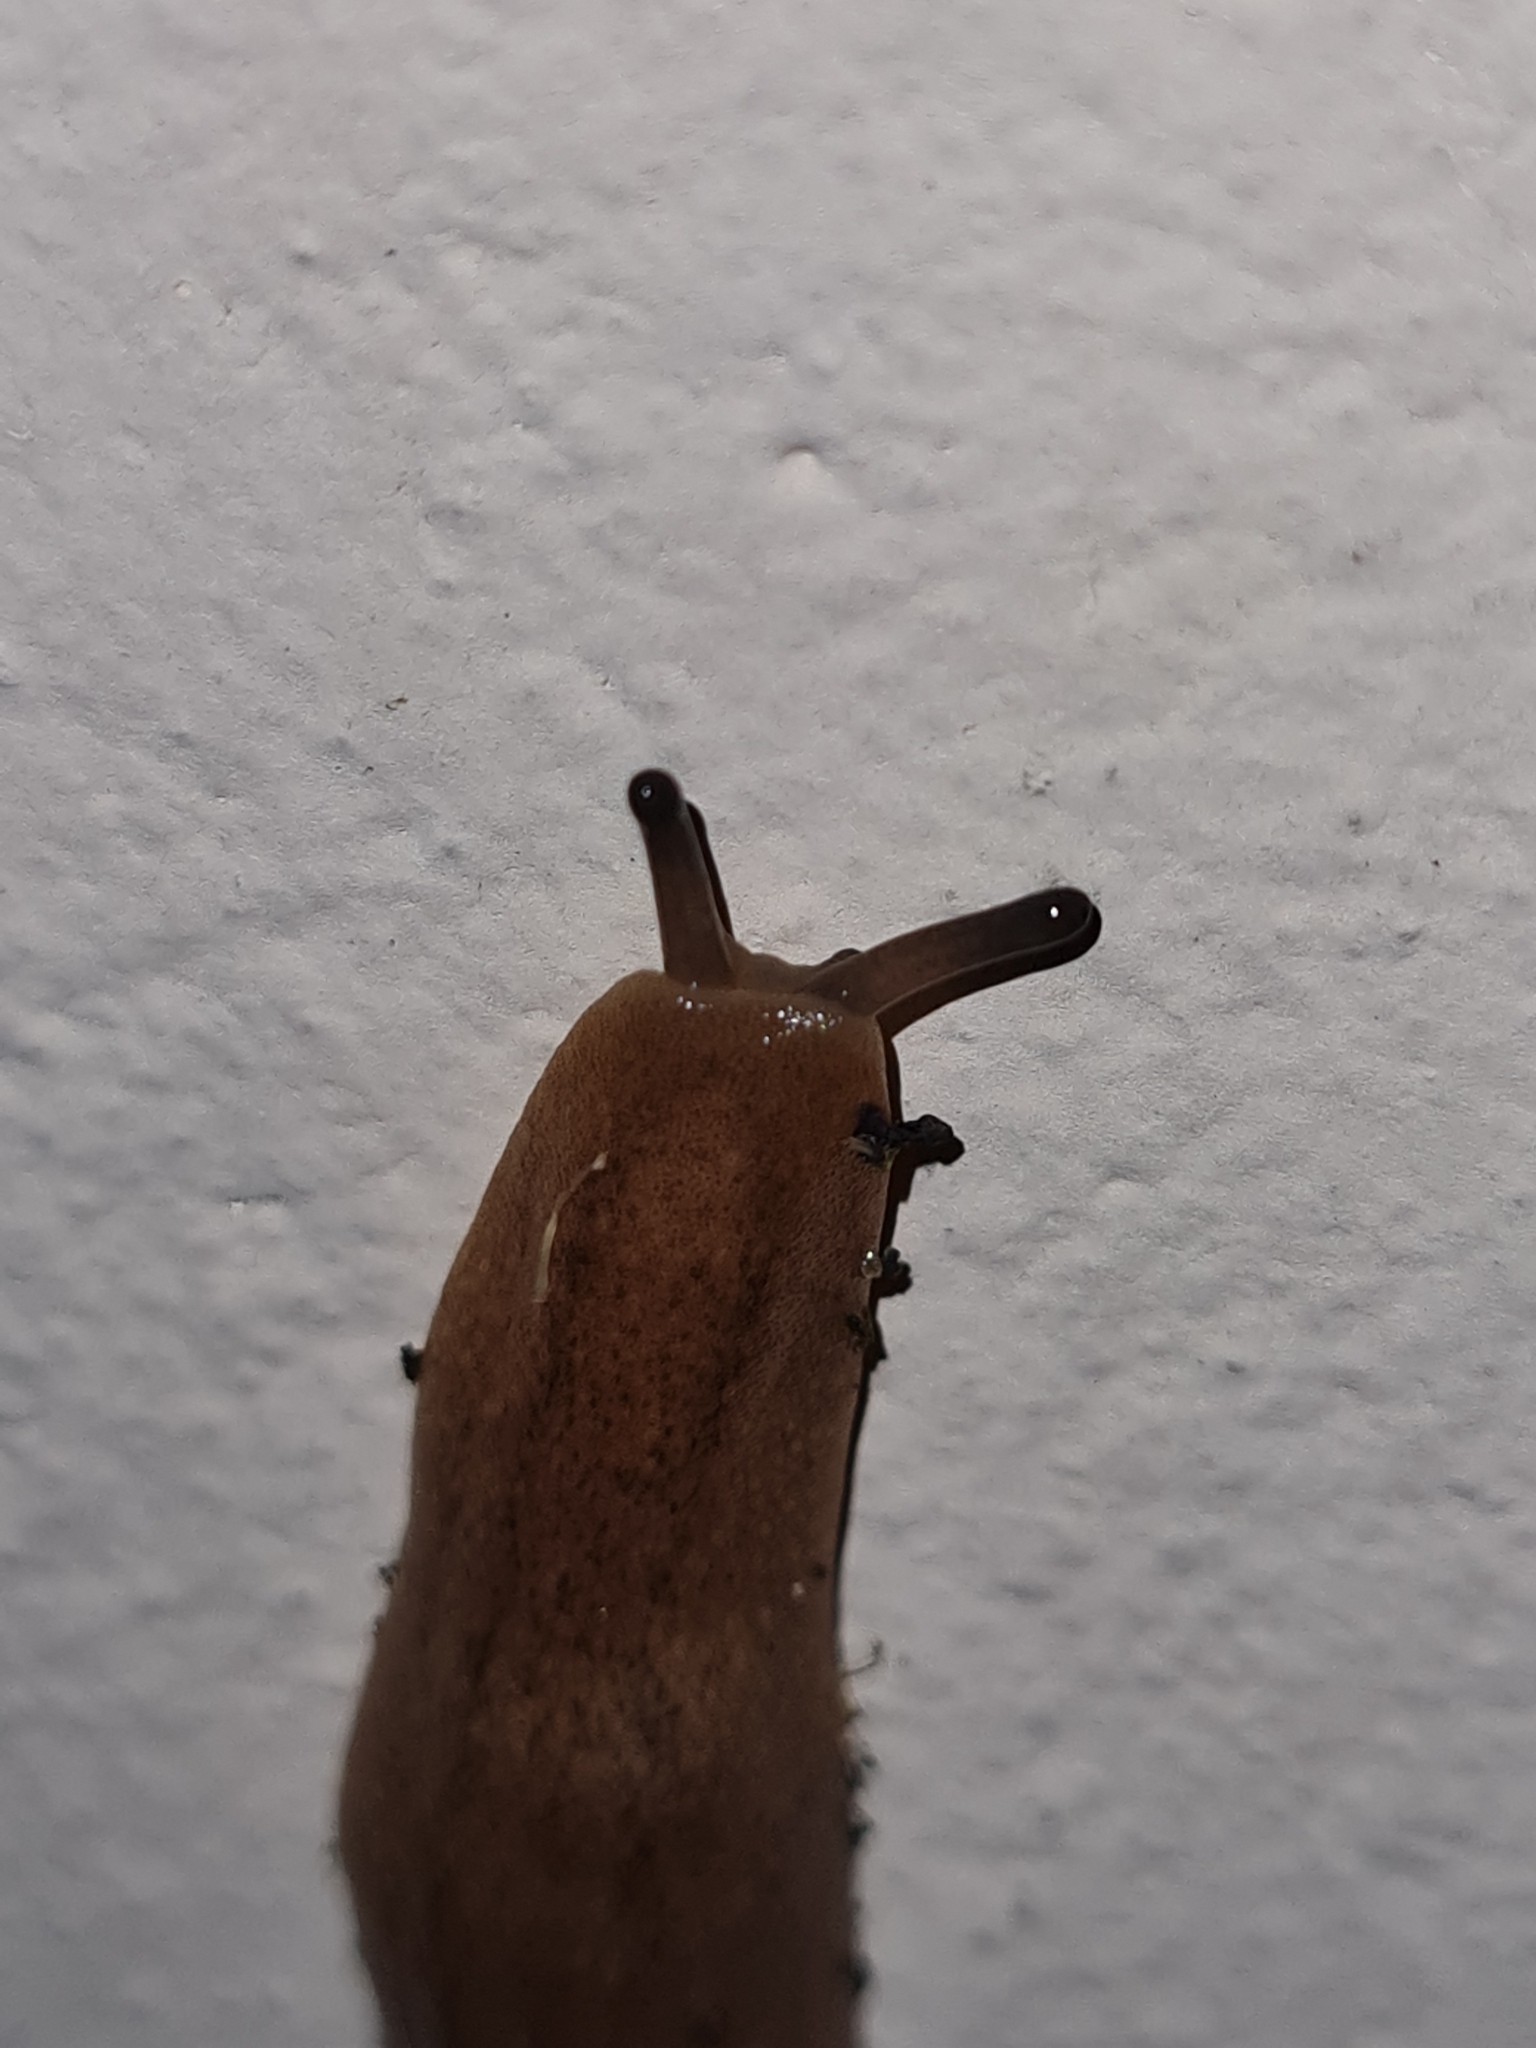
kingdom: Animalia
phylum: Mollusca
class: Gastropoda
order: Systellommatophora
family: Veronicellidae
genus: Leidyula
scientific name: Leidyula moreleti
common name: Tan leatherleaf
